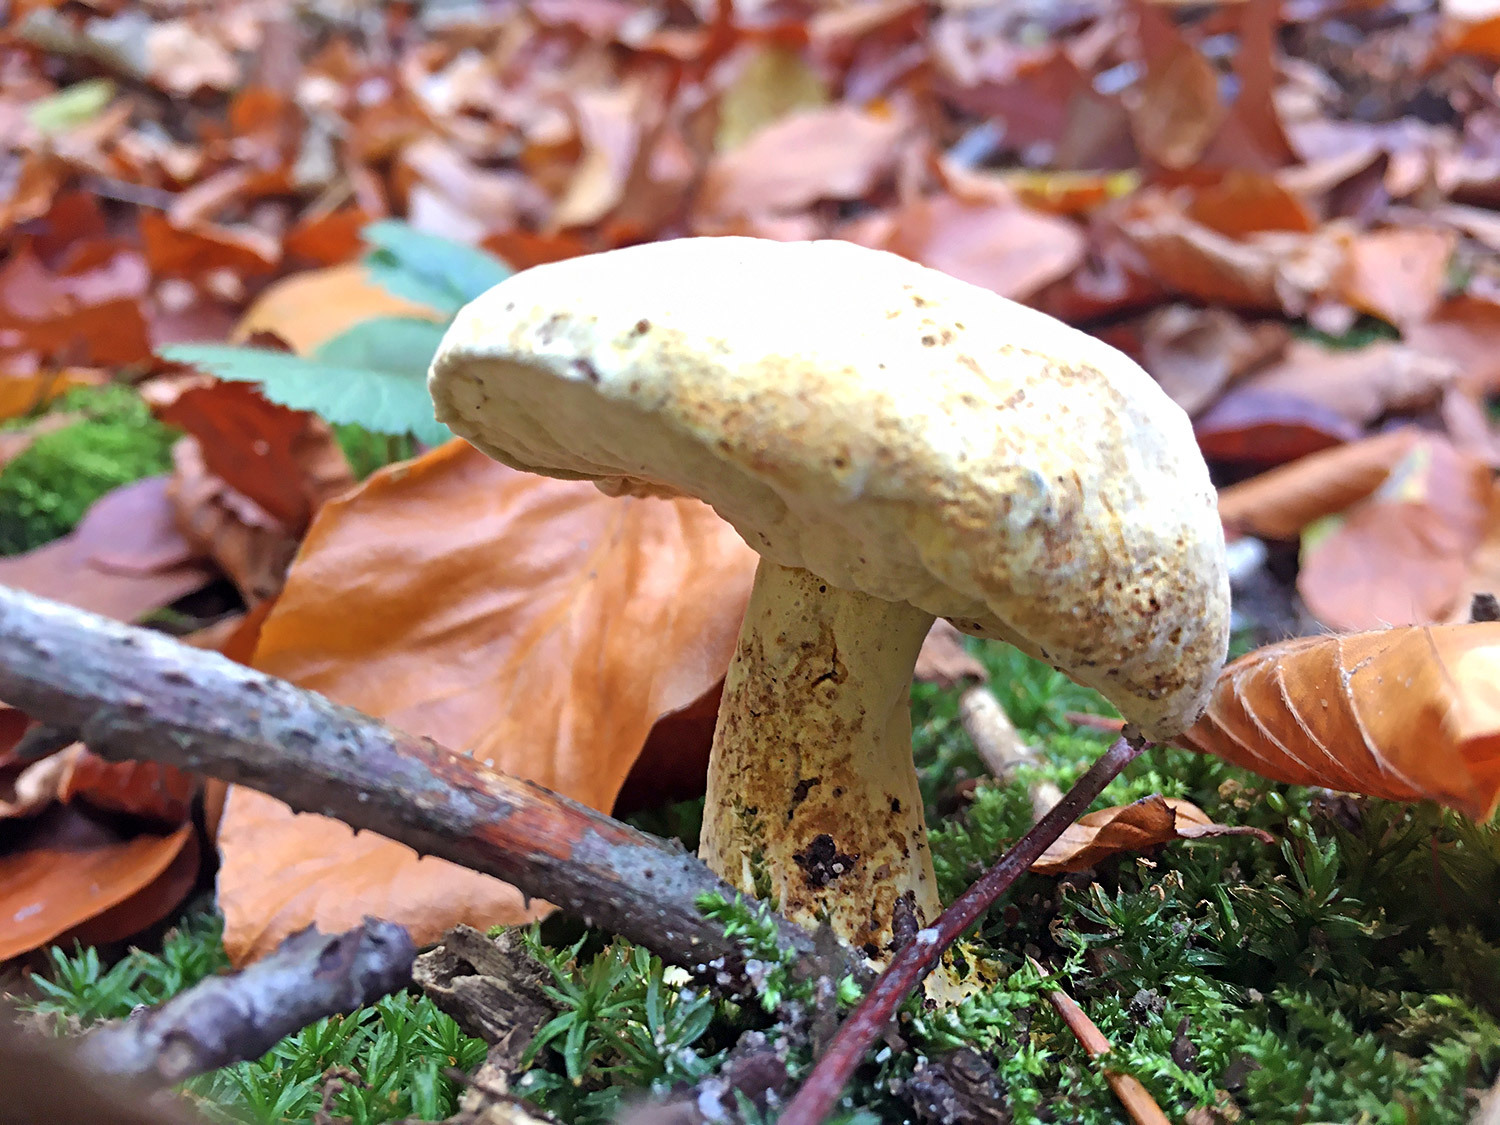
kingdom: Fungi
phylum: Ascomycota
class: Sordariomycetes
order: Hypocreales
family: Hypocreaceae
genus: Hypomyces
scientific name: Hypomyces chrysospermus
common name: Bolete mould
